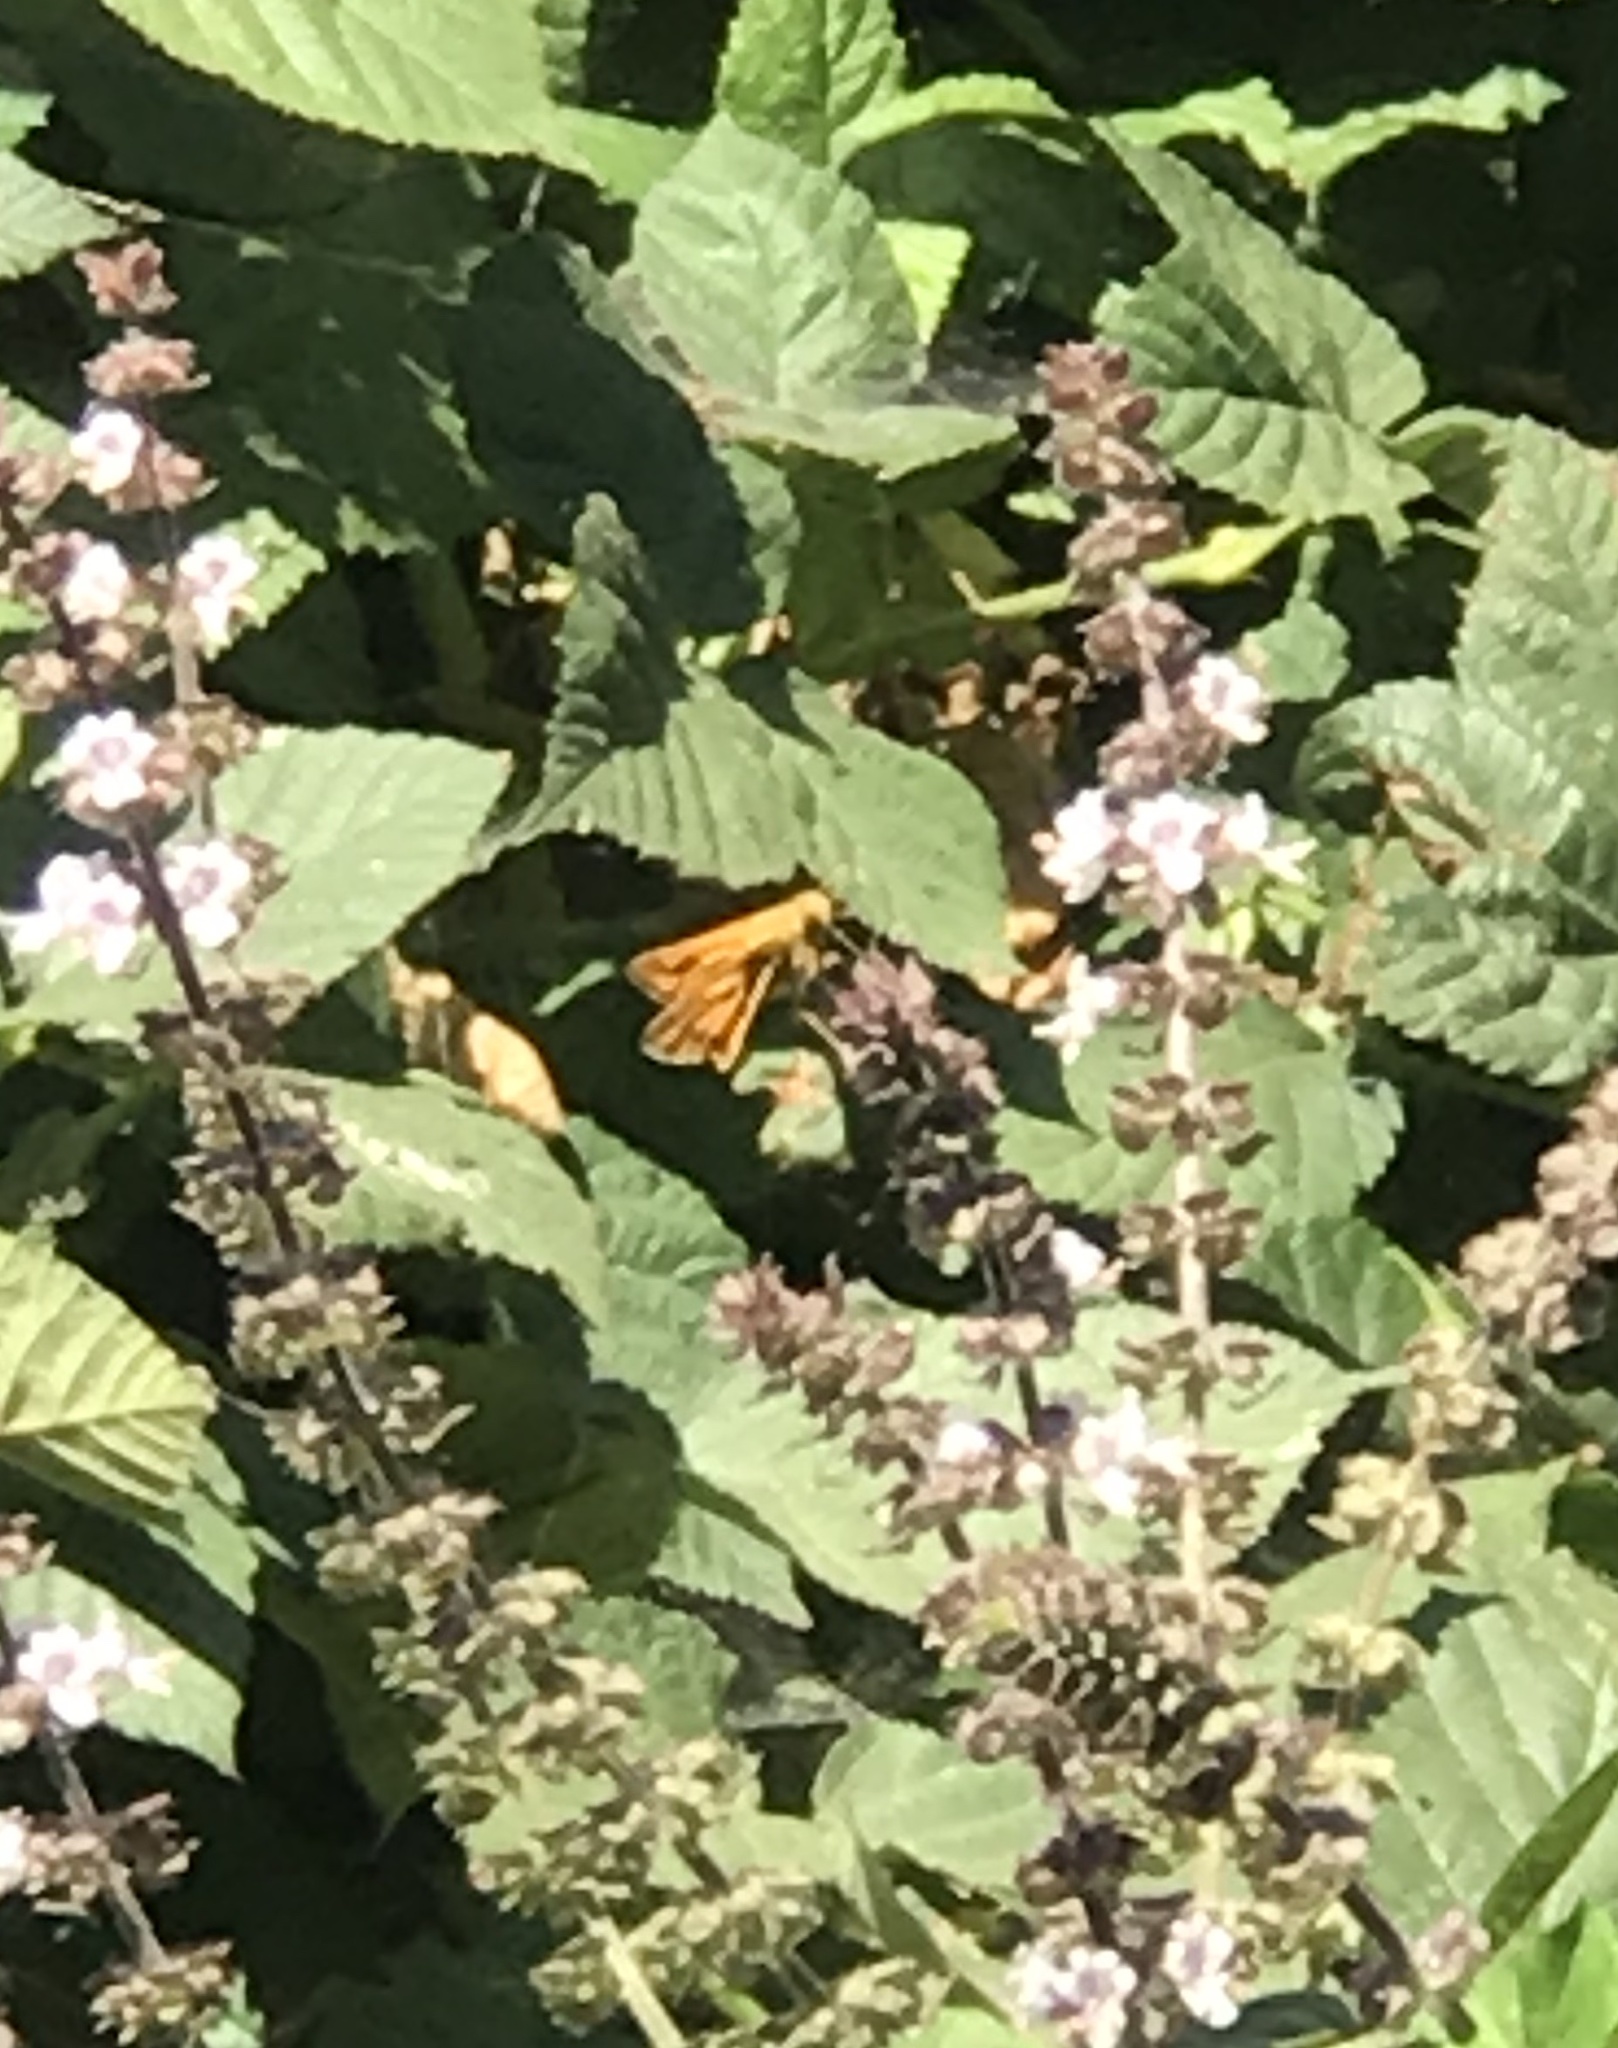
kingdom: Animalia
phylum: Arthropoda
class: Insecta
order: Lepidoptera
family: Hesperiidae
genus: Hylephila
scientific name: Hylephila phyleus
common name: Fiery skipper
